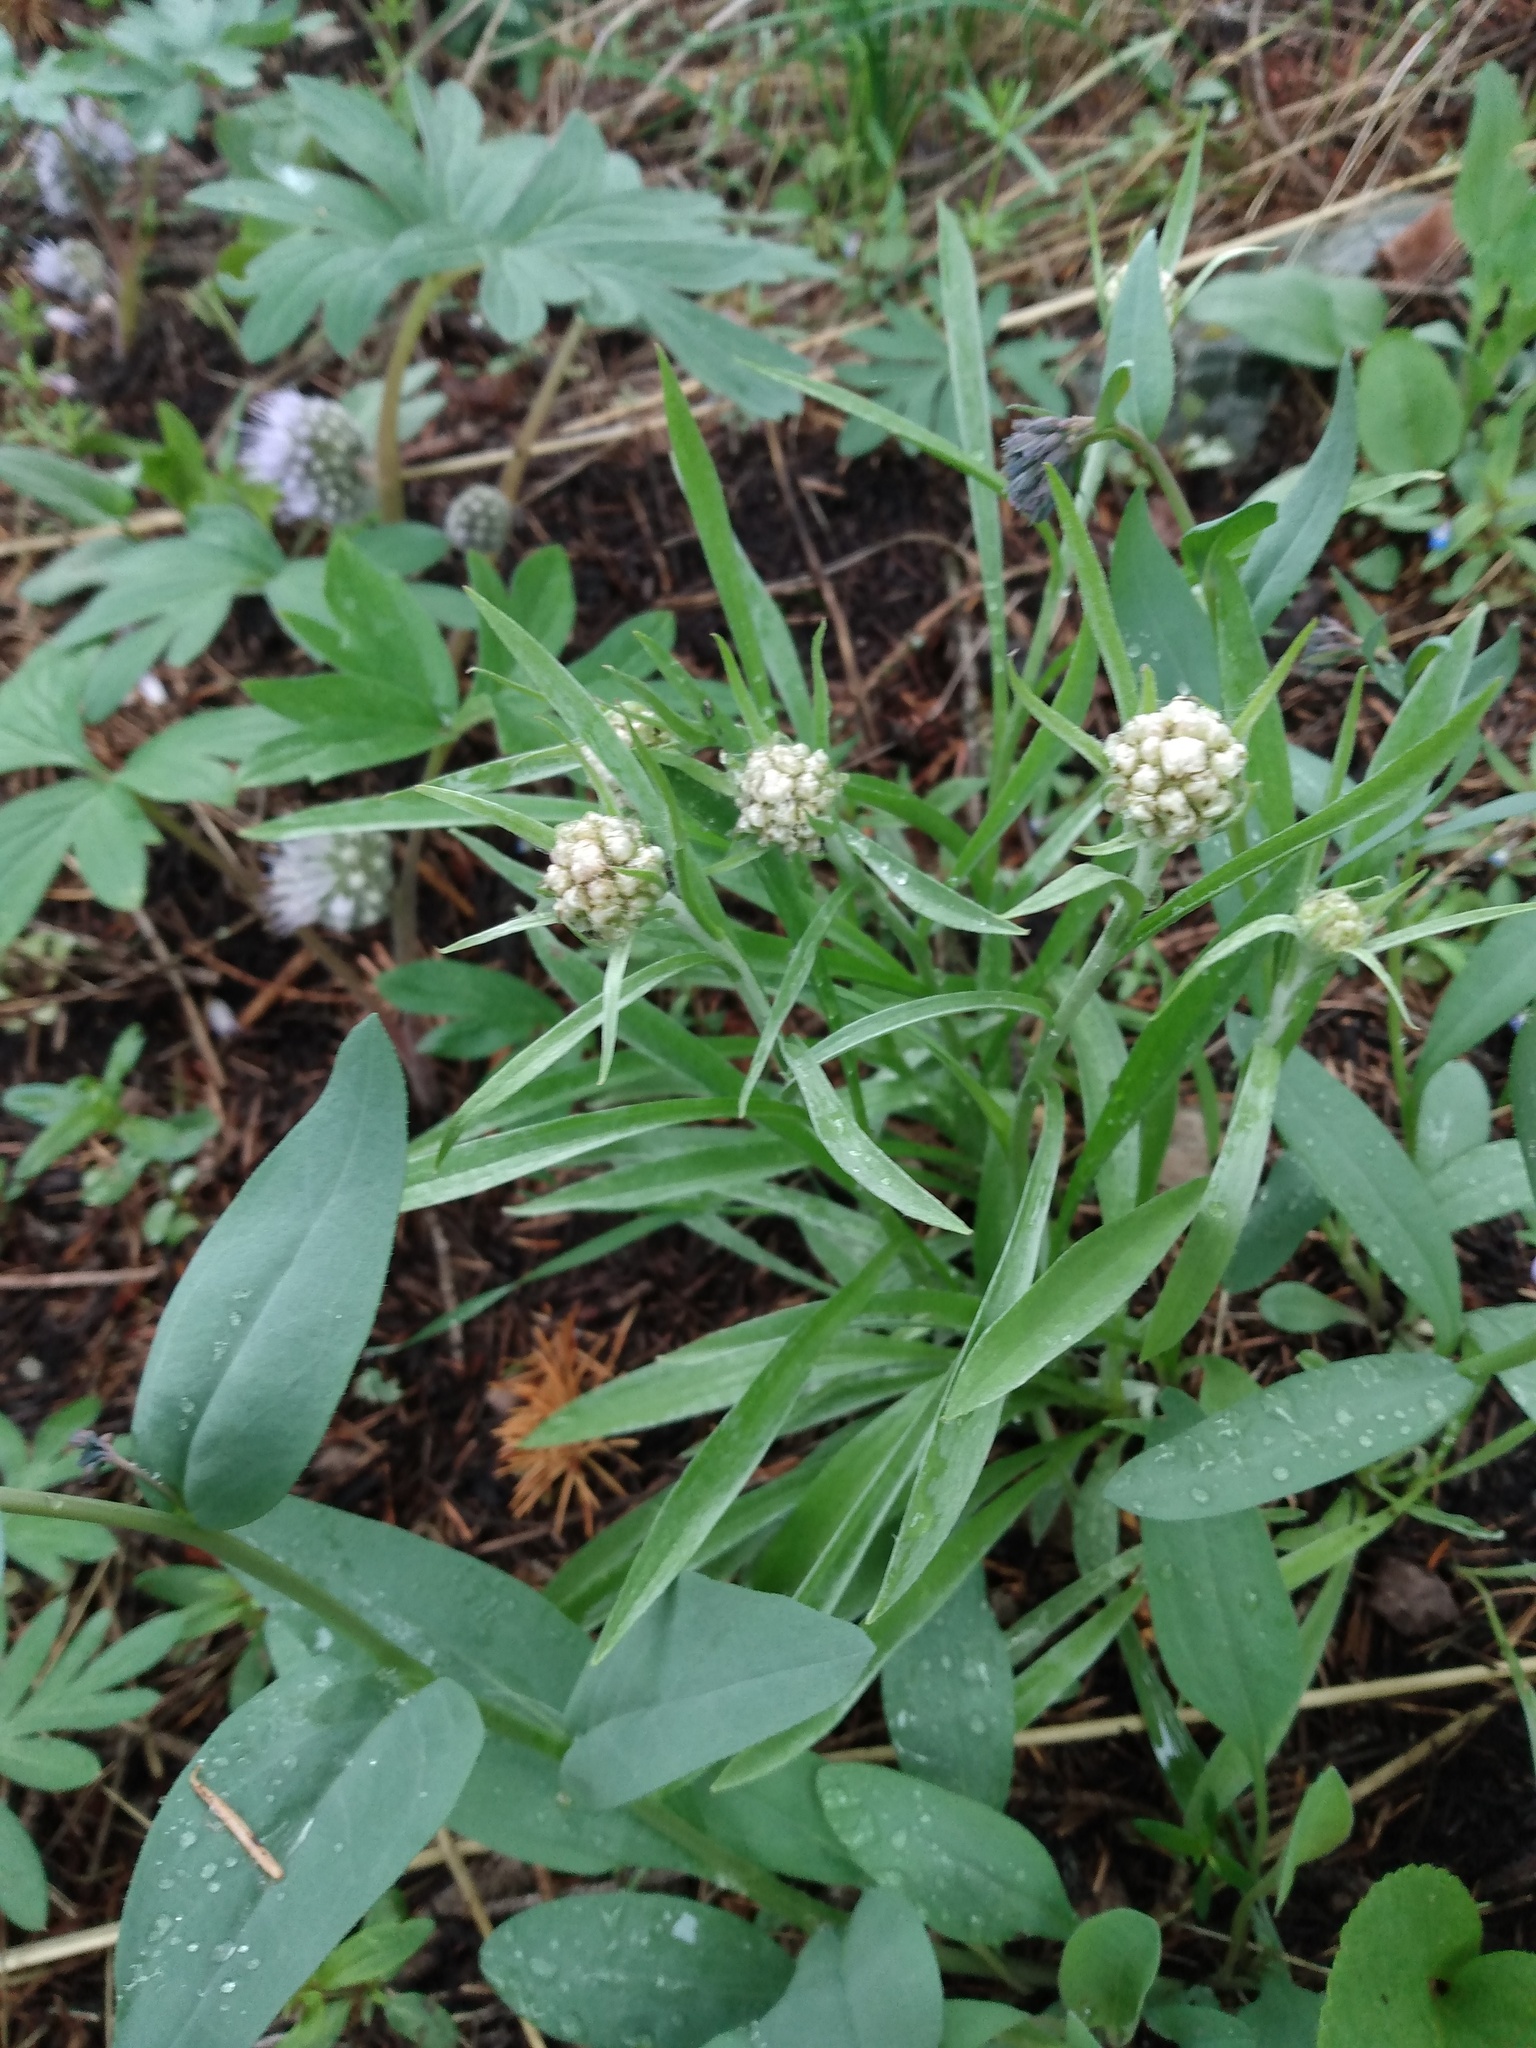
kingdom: Plantae
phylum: Tracheophyta
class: Magnoliopsida
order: Asterales
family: Asteraceae
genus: Antennaria
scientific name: Antennaria anaphaloides
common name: Tall pussytoes
